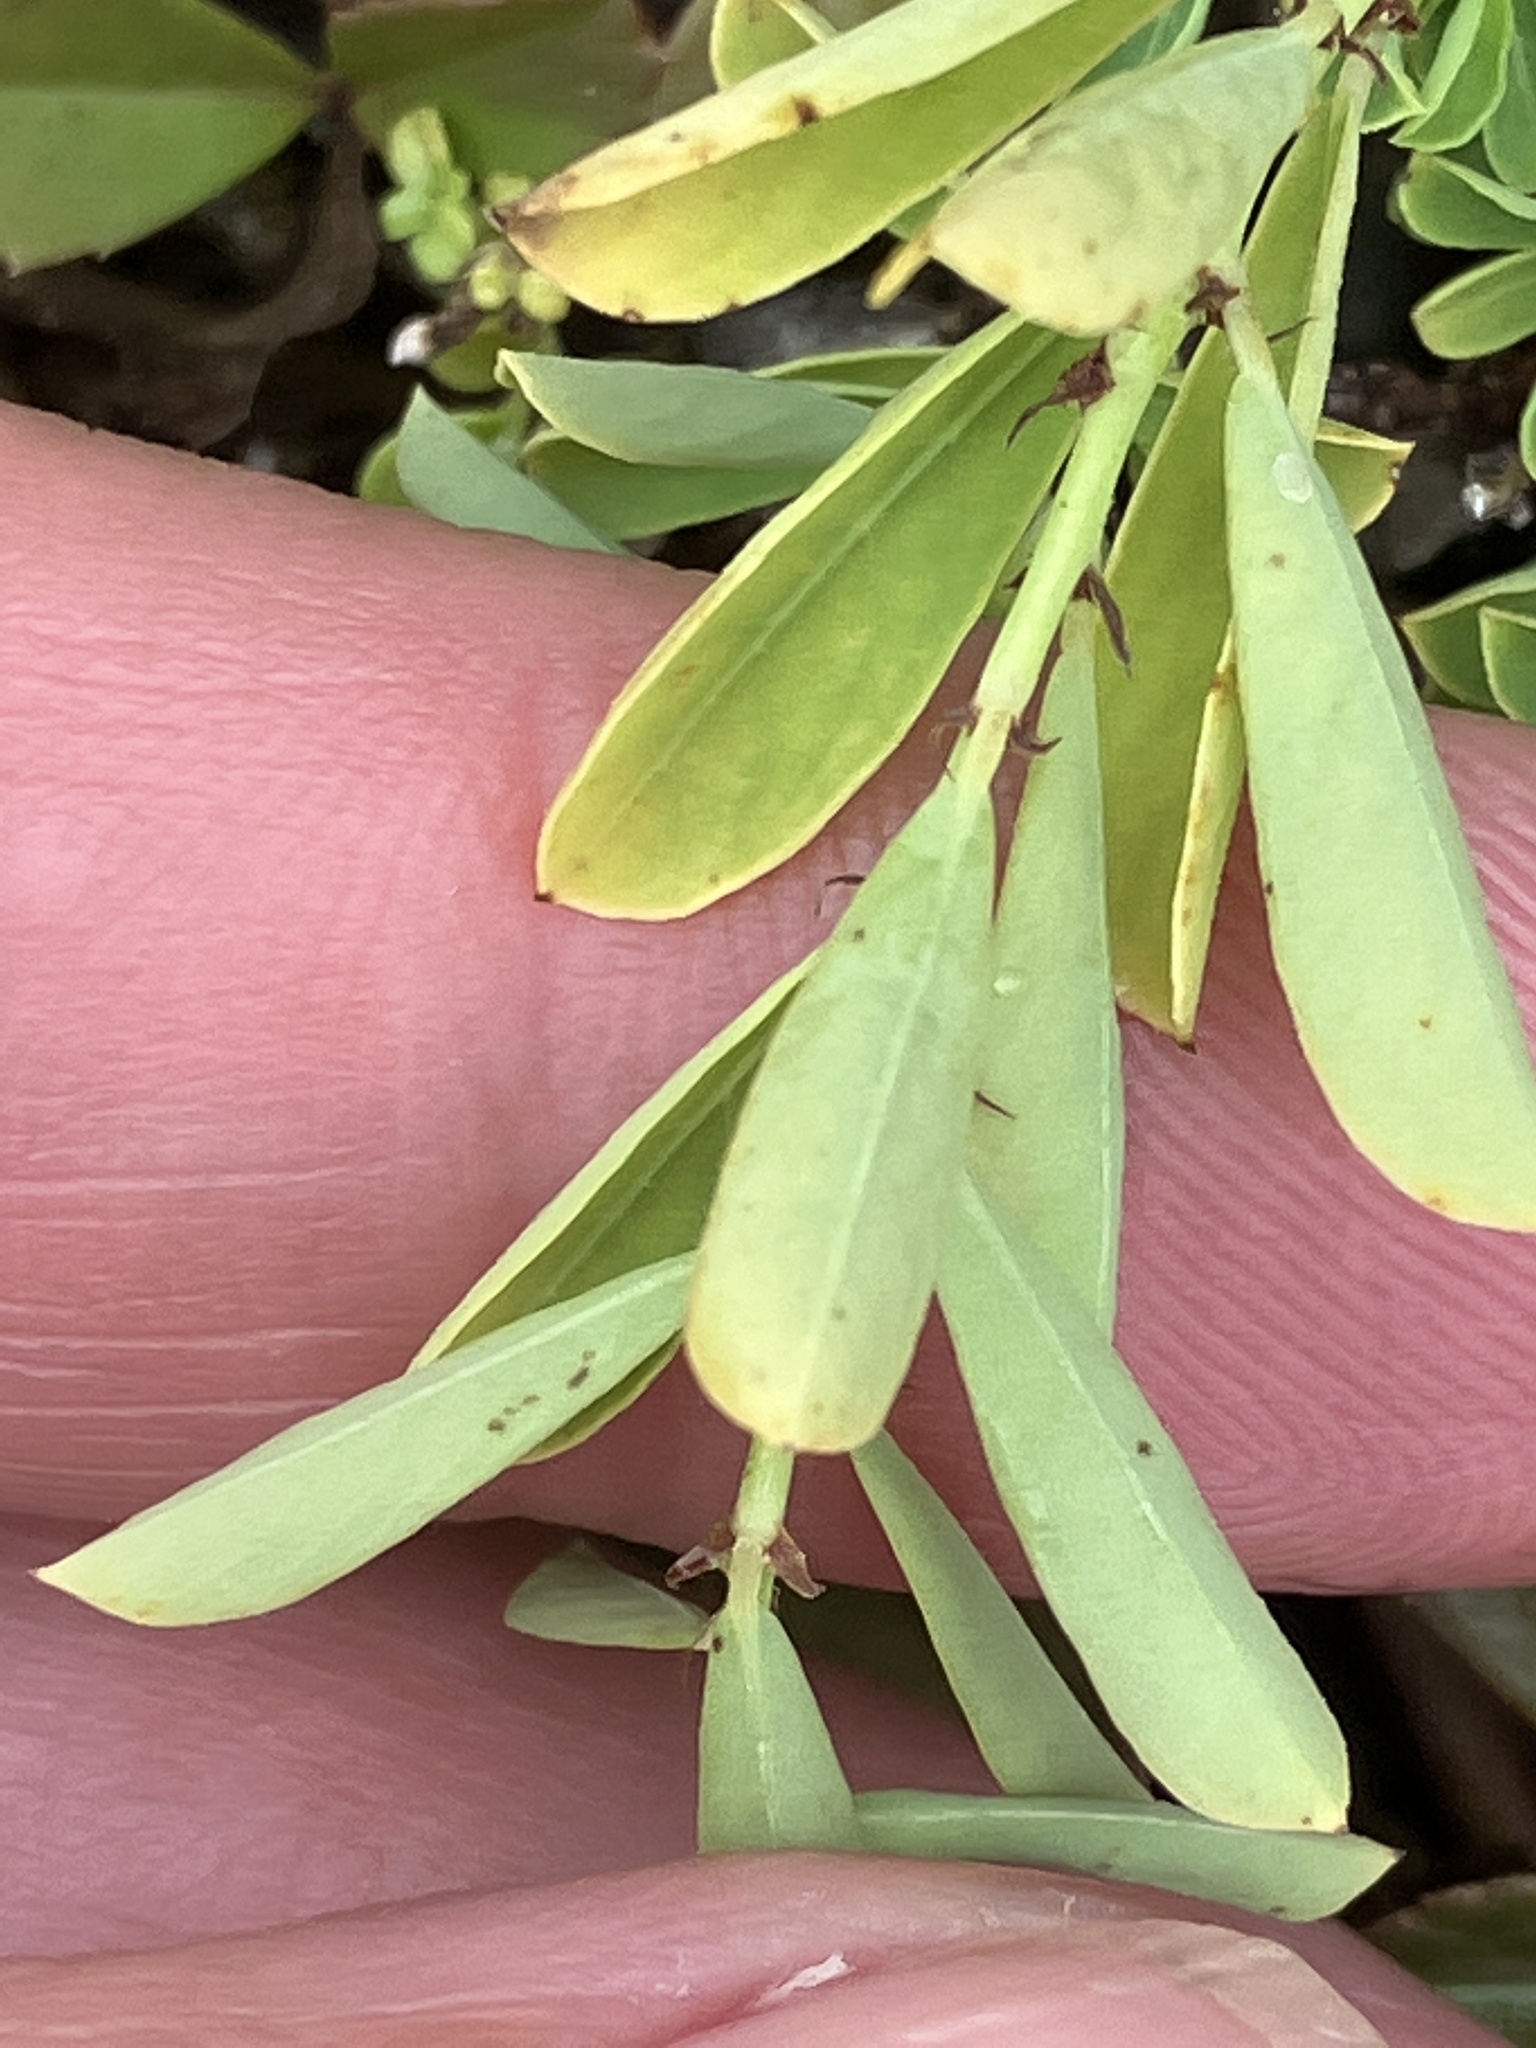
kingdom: Plantae
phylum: Tracheophyta
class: Magnoliopsida
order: Malpighiales
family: Phyllanthaceae
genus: Phyllanthus
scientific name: Phyllanthus polygonoides
